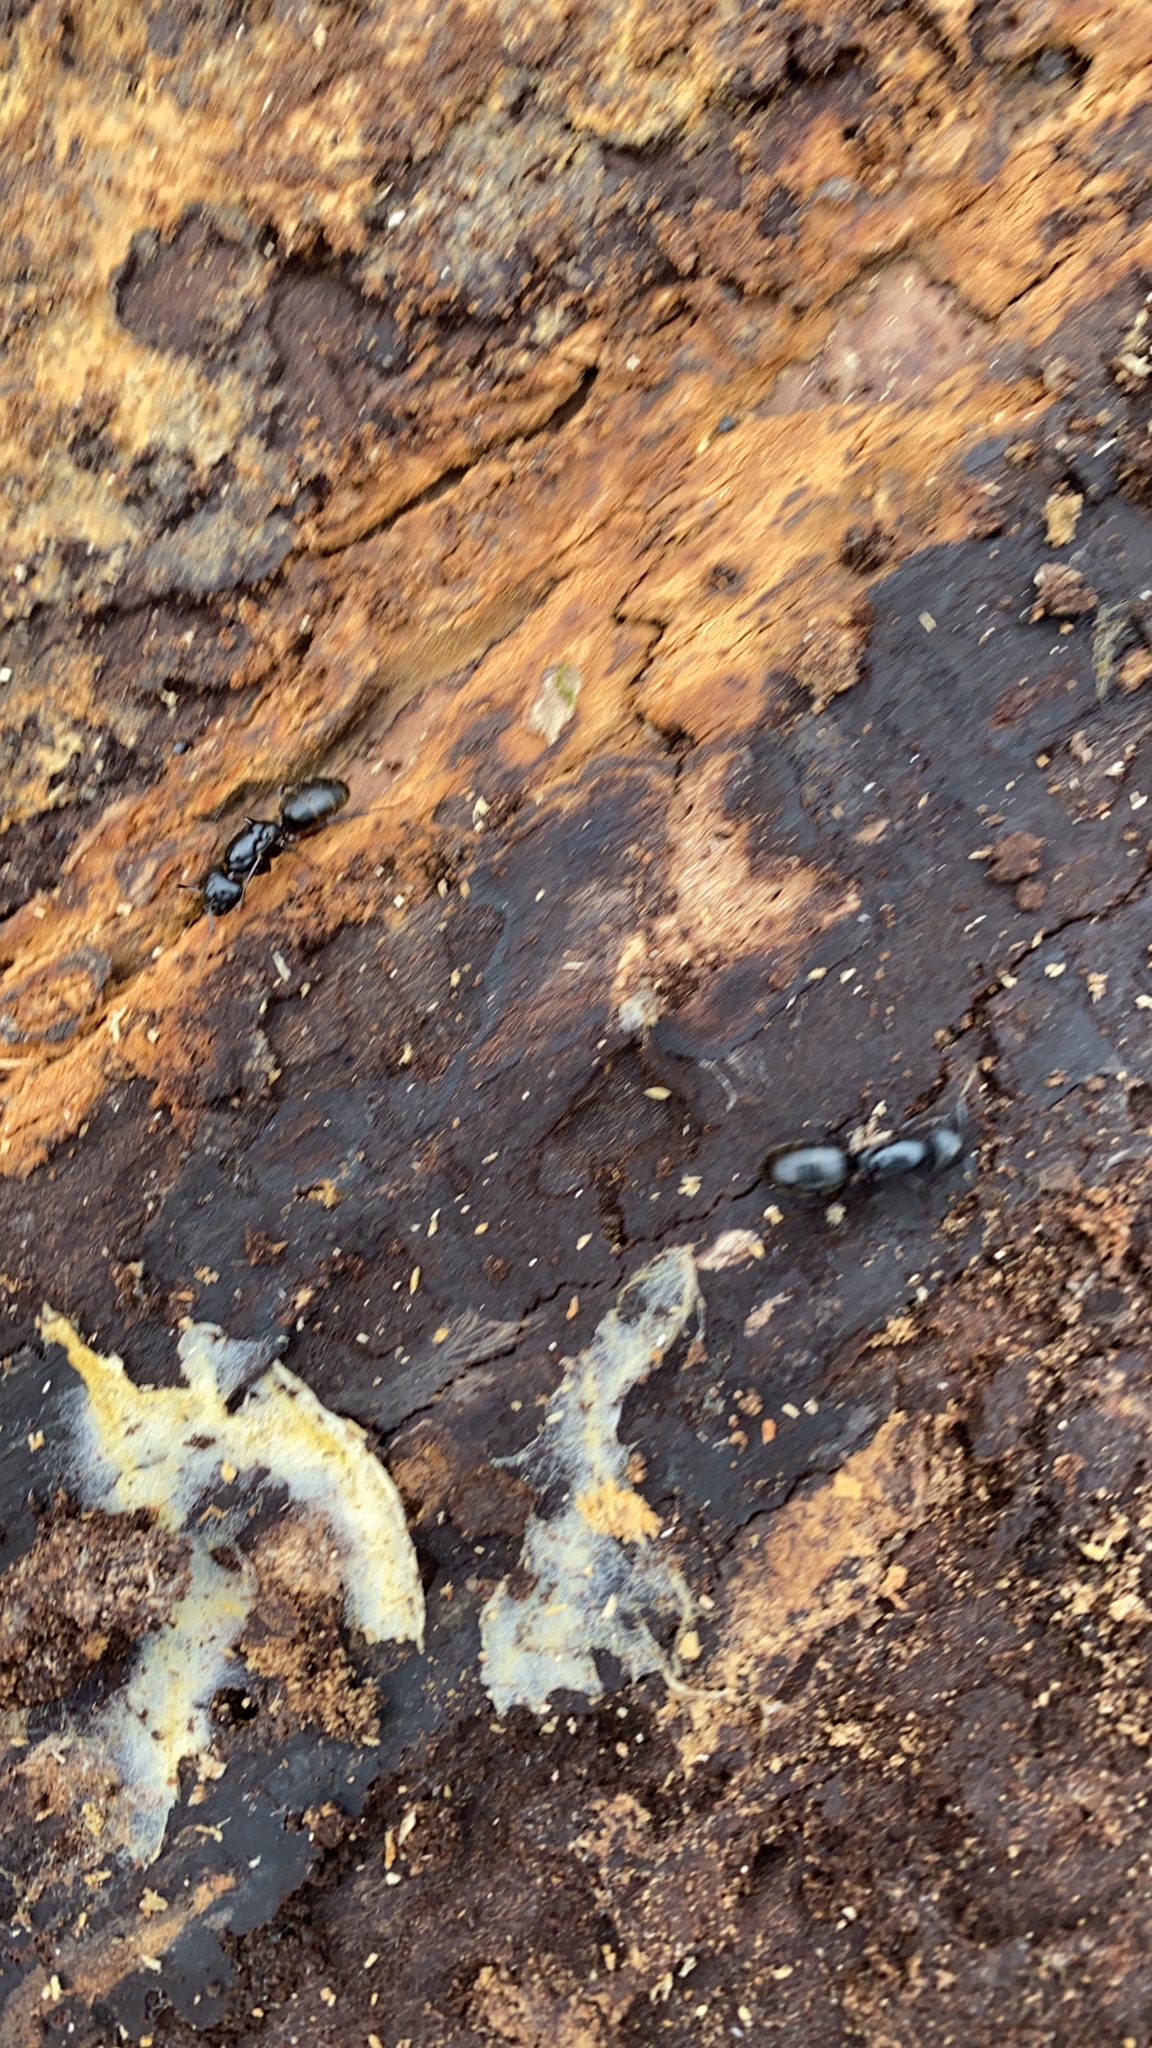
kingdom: Animalia
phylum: Arthropoda
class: Insecta
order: Hymenoptera
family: Formicidae
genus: Camponotus
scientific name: Camponotus pennsylvanicus
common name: Black carpenter ant
